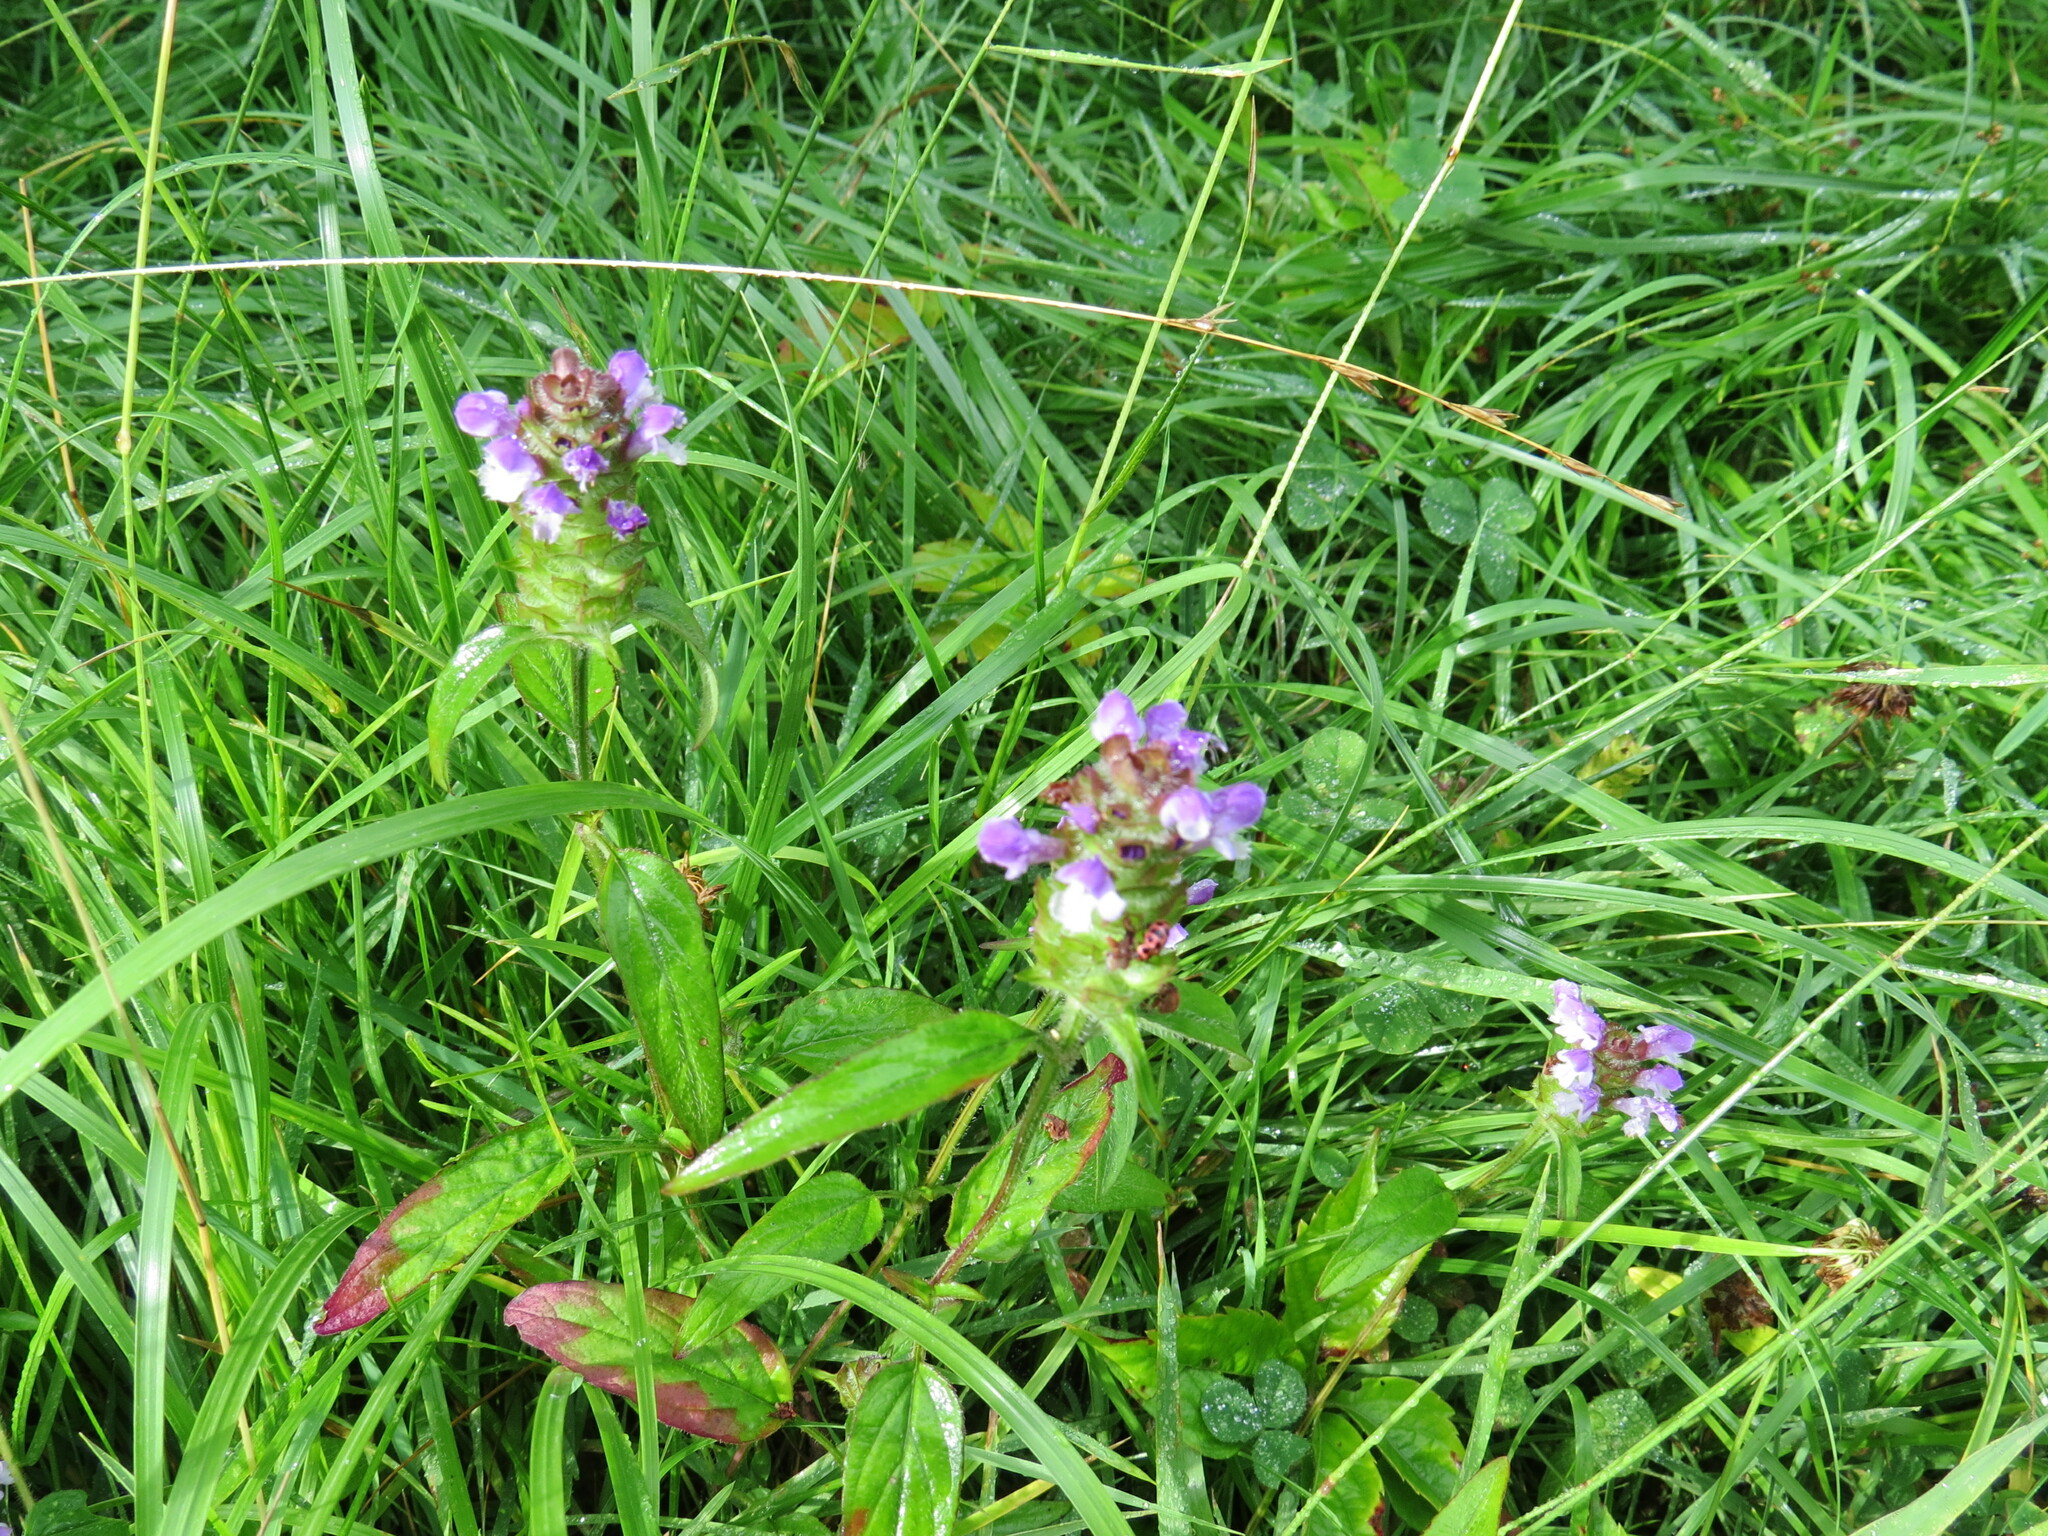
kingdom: Plantae
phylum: Tracheophyta
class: Magnoliopsida
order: Lamiales
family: Lamiaceae
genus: Prunella
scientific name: Prunella vulgaris
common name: Heal-all
